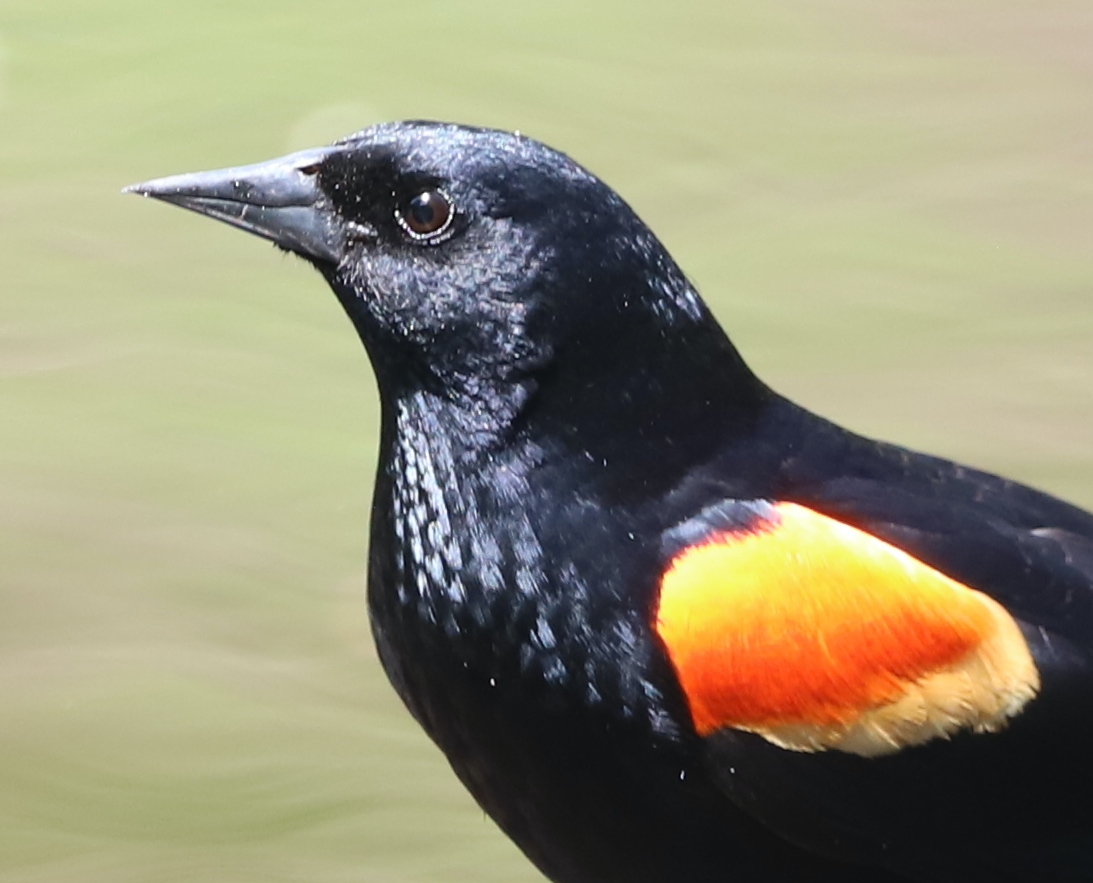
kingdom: Animalia
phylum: Chordata
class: Aves
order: Passeriformes
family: Icteridae
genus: Agelaius
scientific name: Agelaius phoeniceus
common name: Red-winged blackbird
